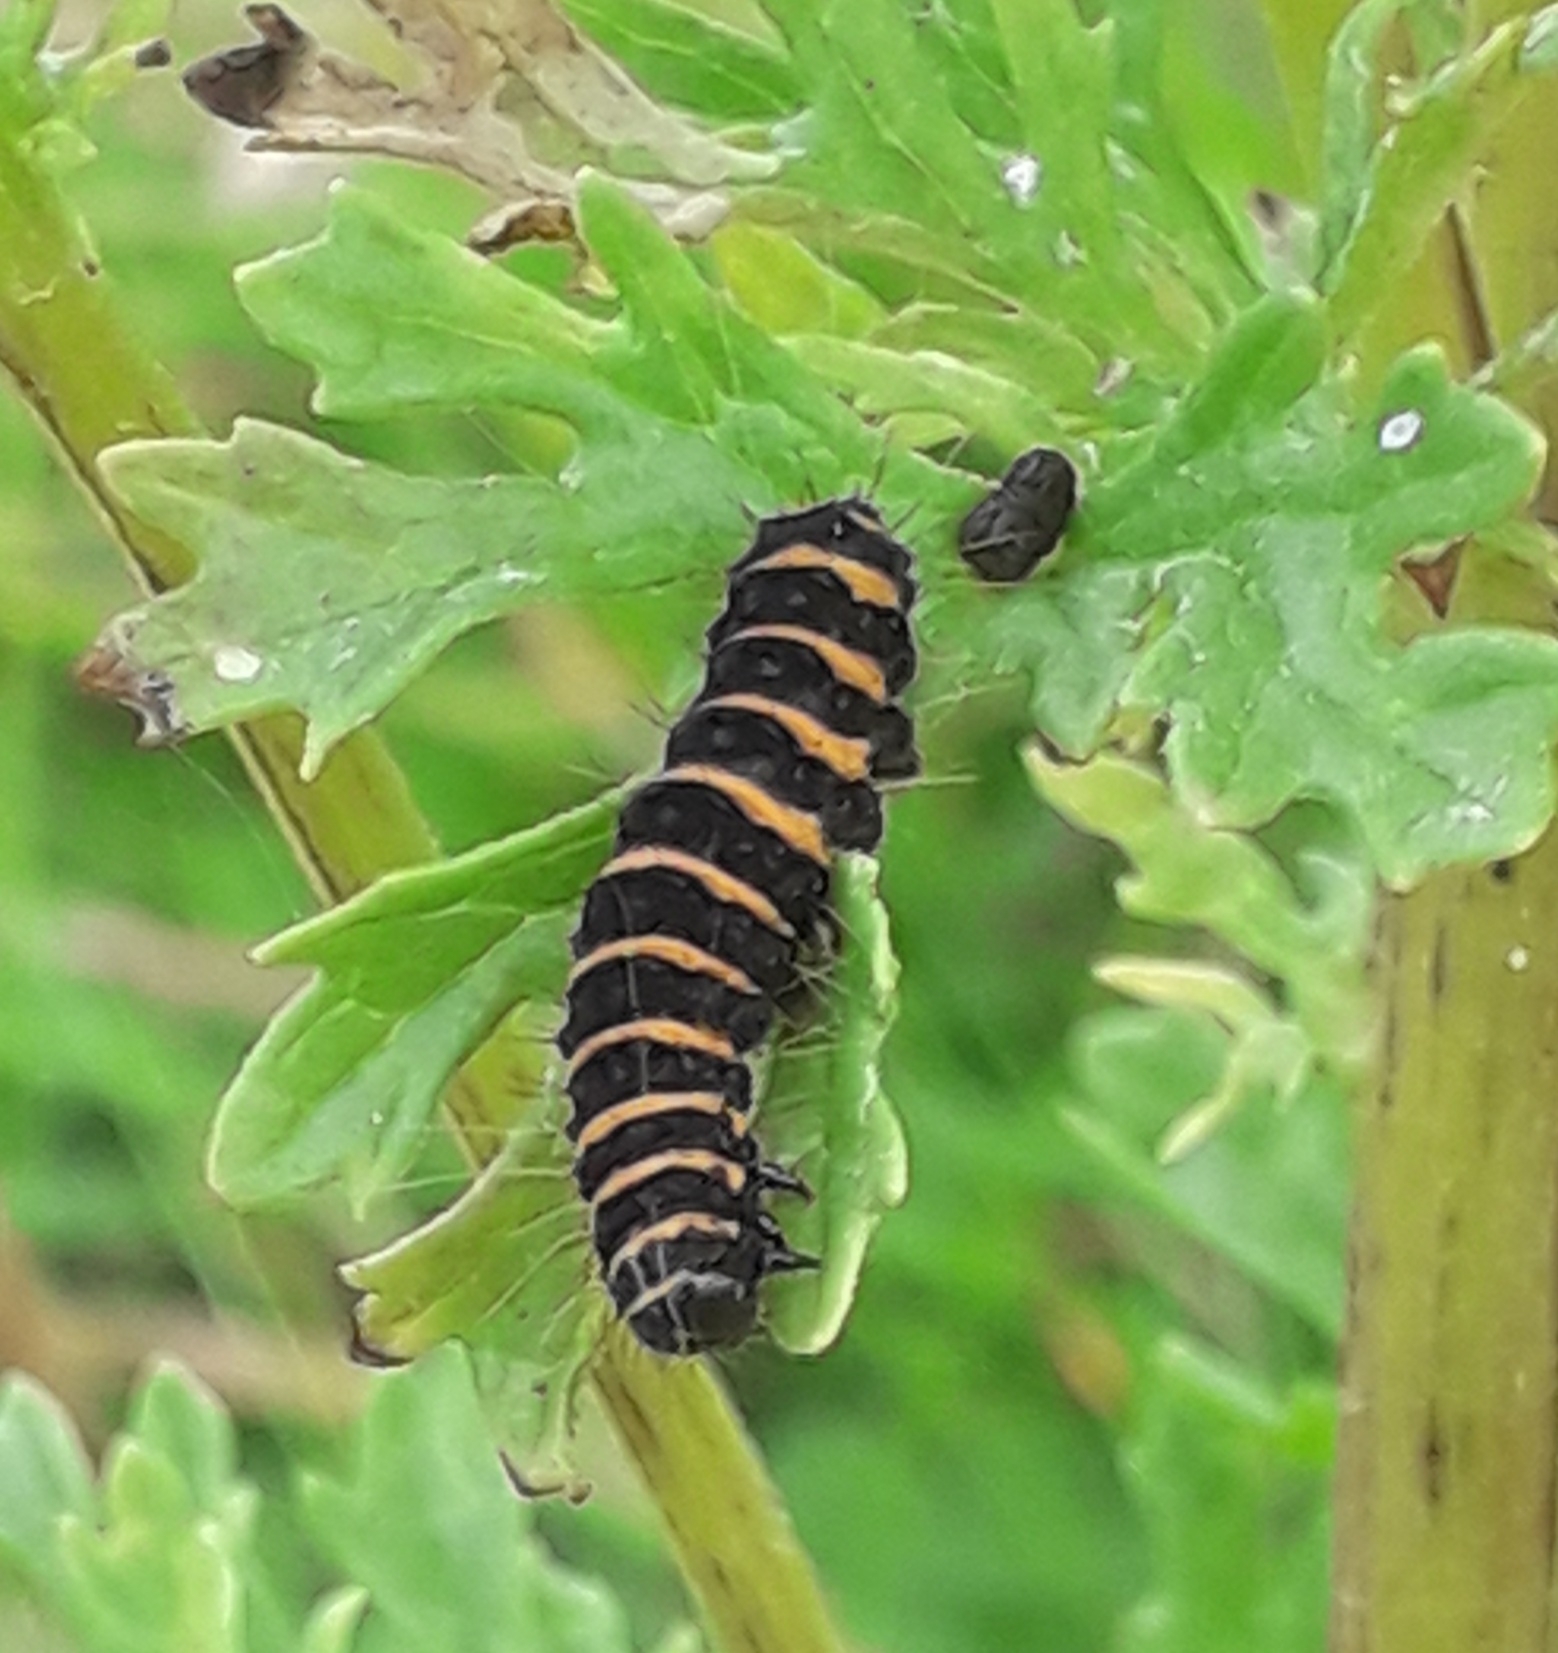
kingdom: Animalia
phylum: Arthropoda
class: Insecta
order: Lepidoptera
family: Erebidae
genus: Tyria
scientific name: Tyria jacobaeae
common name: Cinnabar
